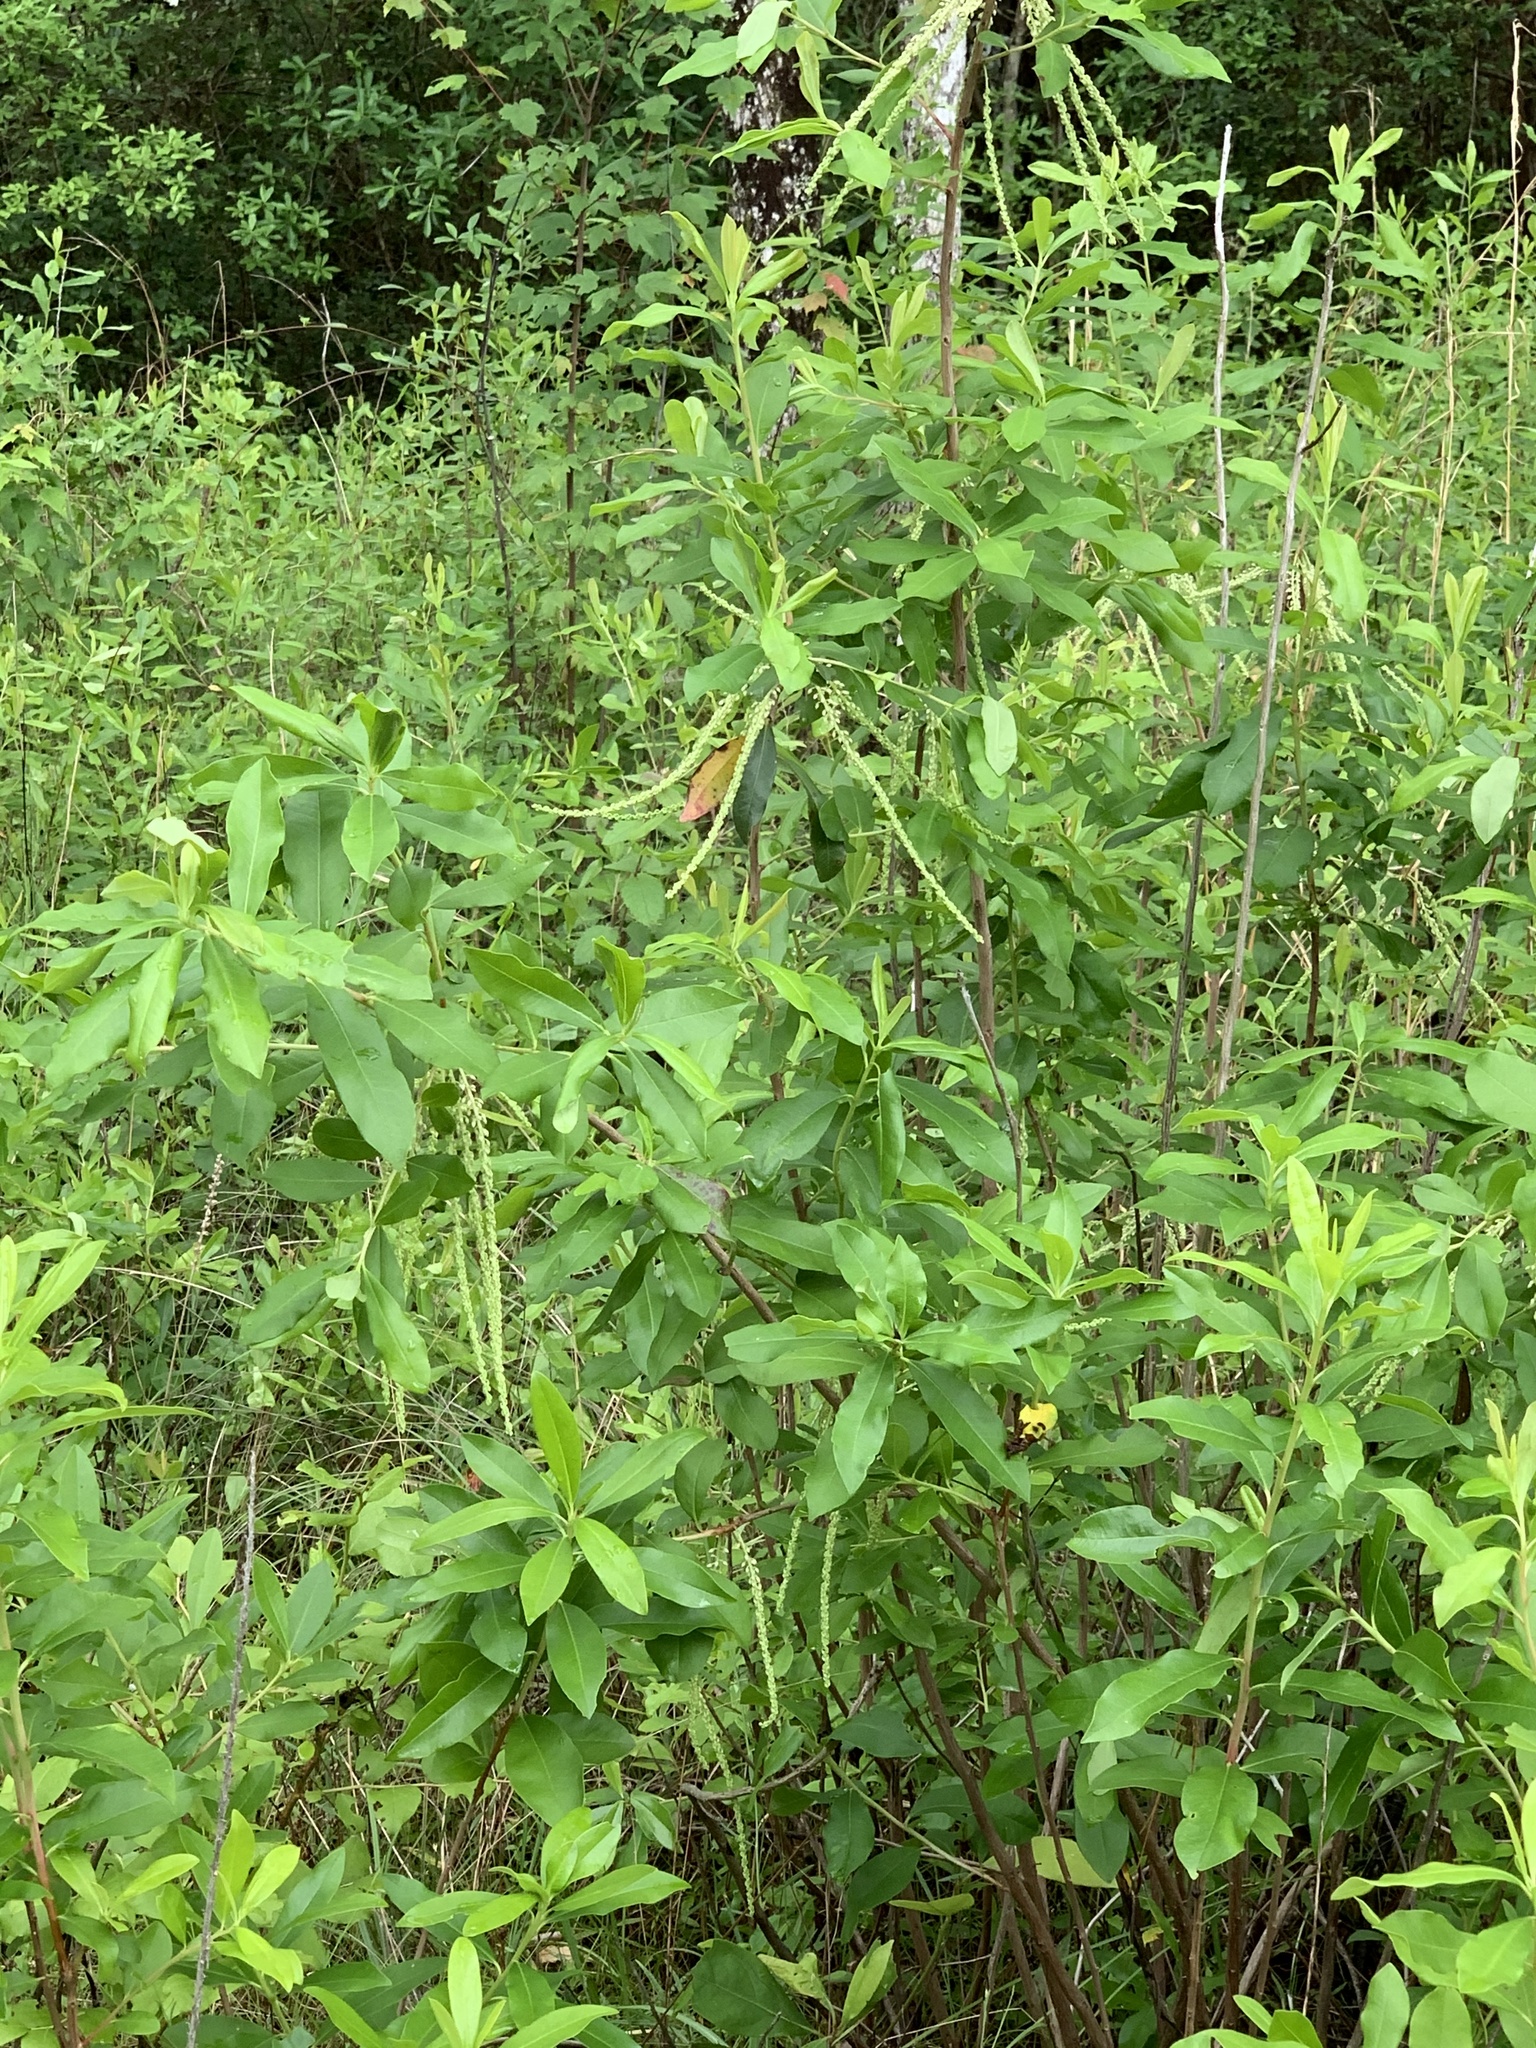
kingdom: Plantae
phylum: Tracheophyta
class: Magnoliopsida
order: Ericales
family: Cyrillaceae
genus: Cyrilla
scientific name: Cyrilla racemiflora
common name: Black titi
